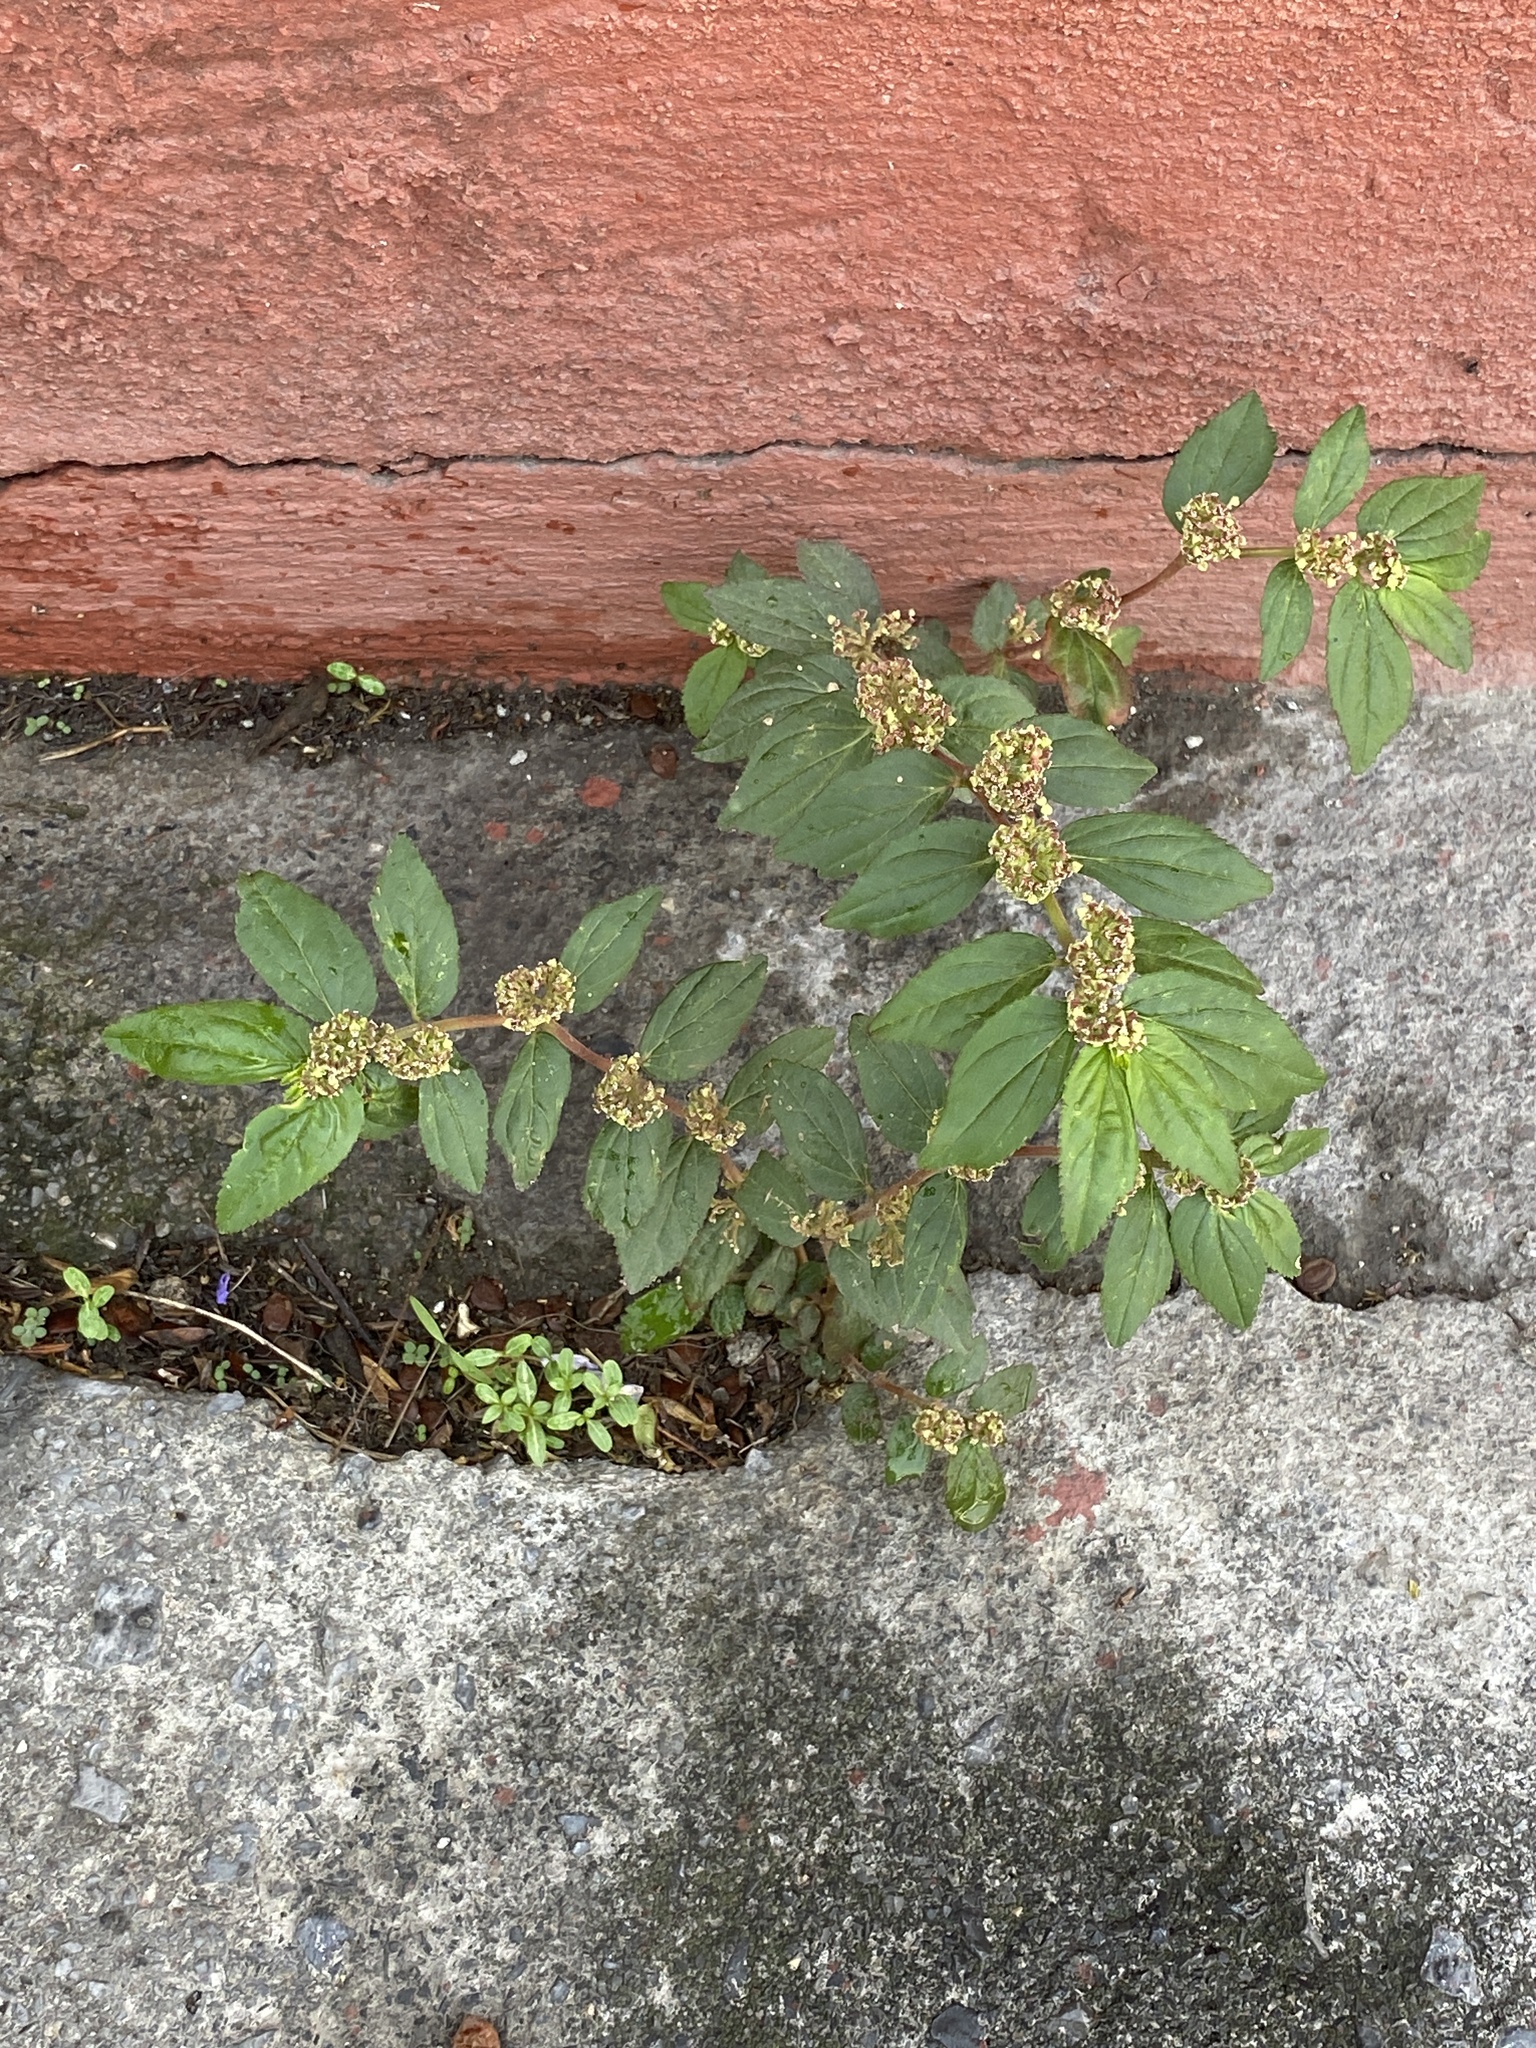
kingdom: Plantae
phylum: Tracheophyta
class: Magnoliopsida
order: Malpighiales
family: Euphorbiaceae
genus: Euphorbia
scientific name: Euphorbia hirta
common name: Pillpod sandmat
